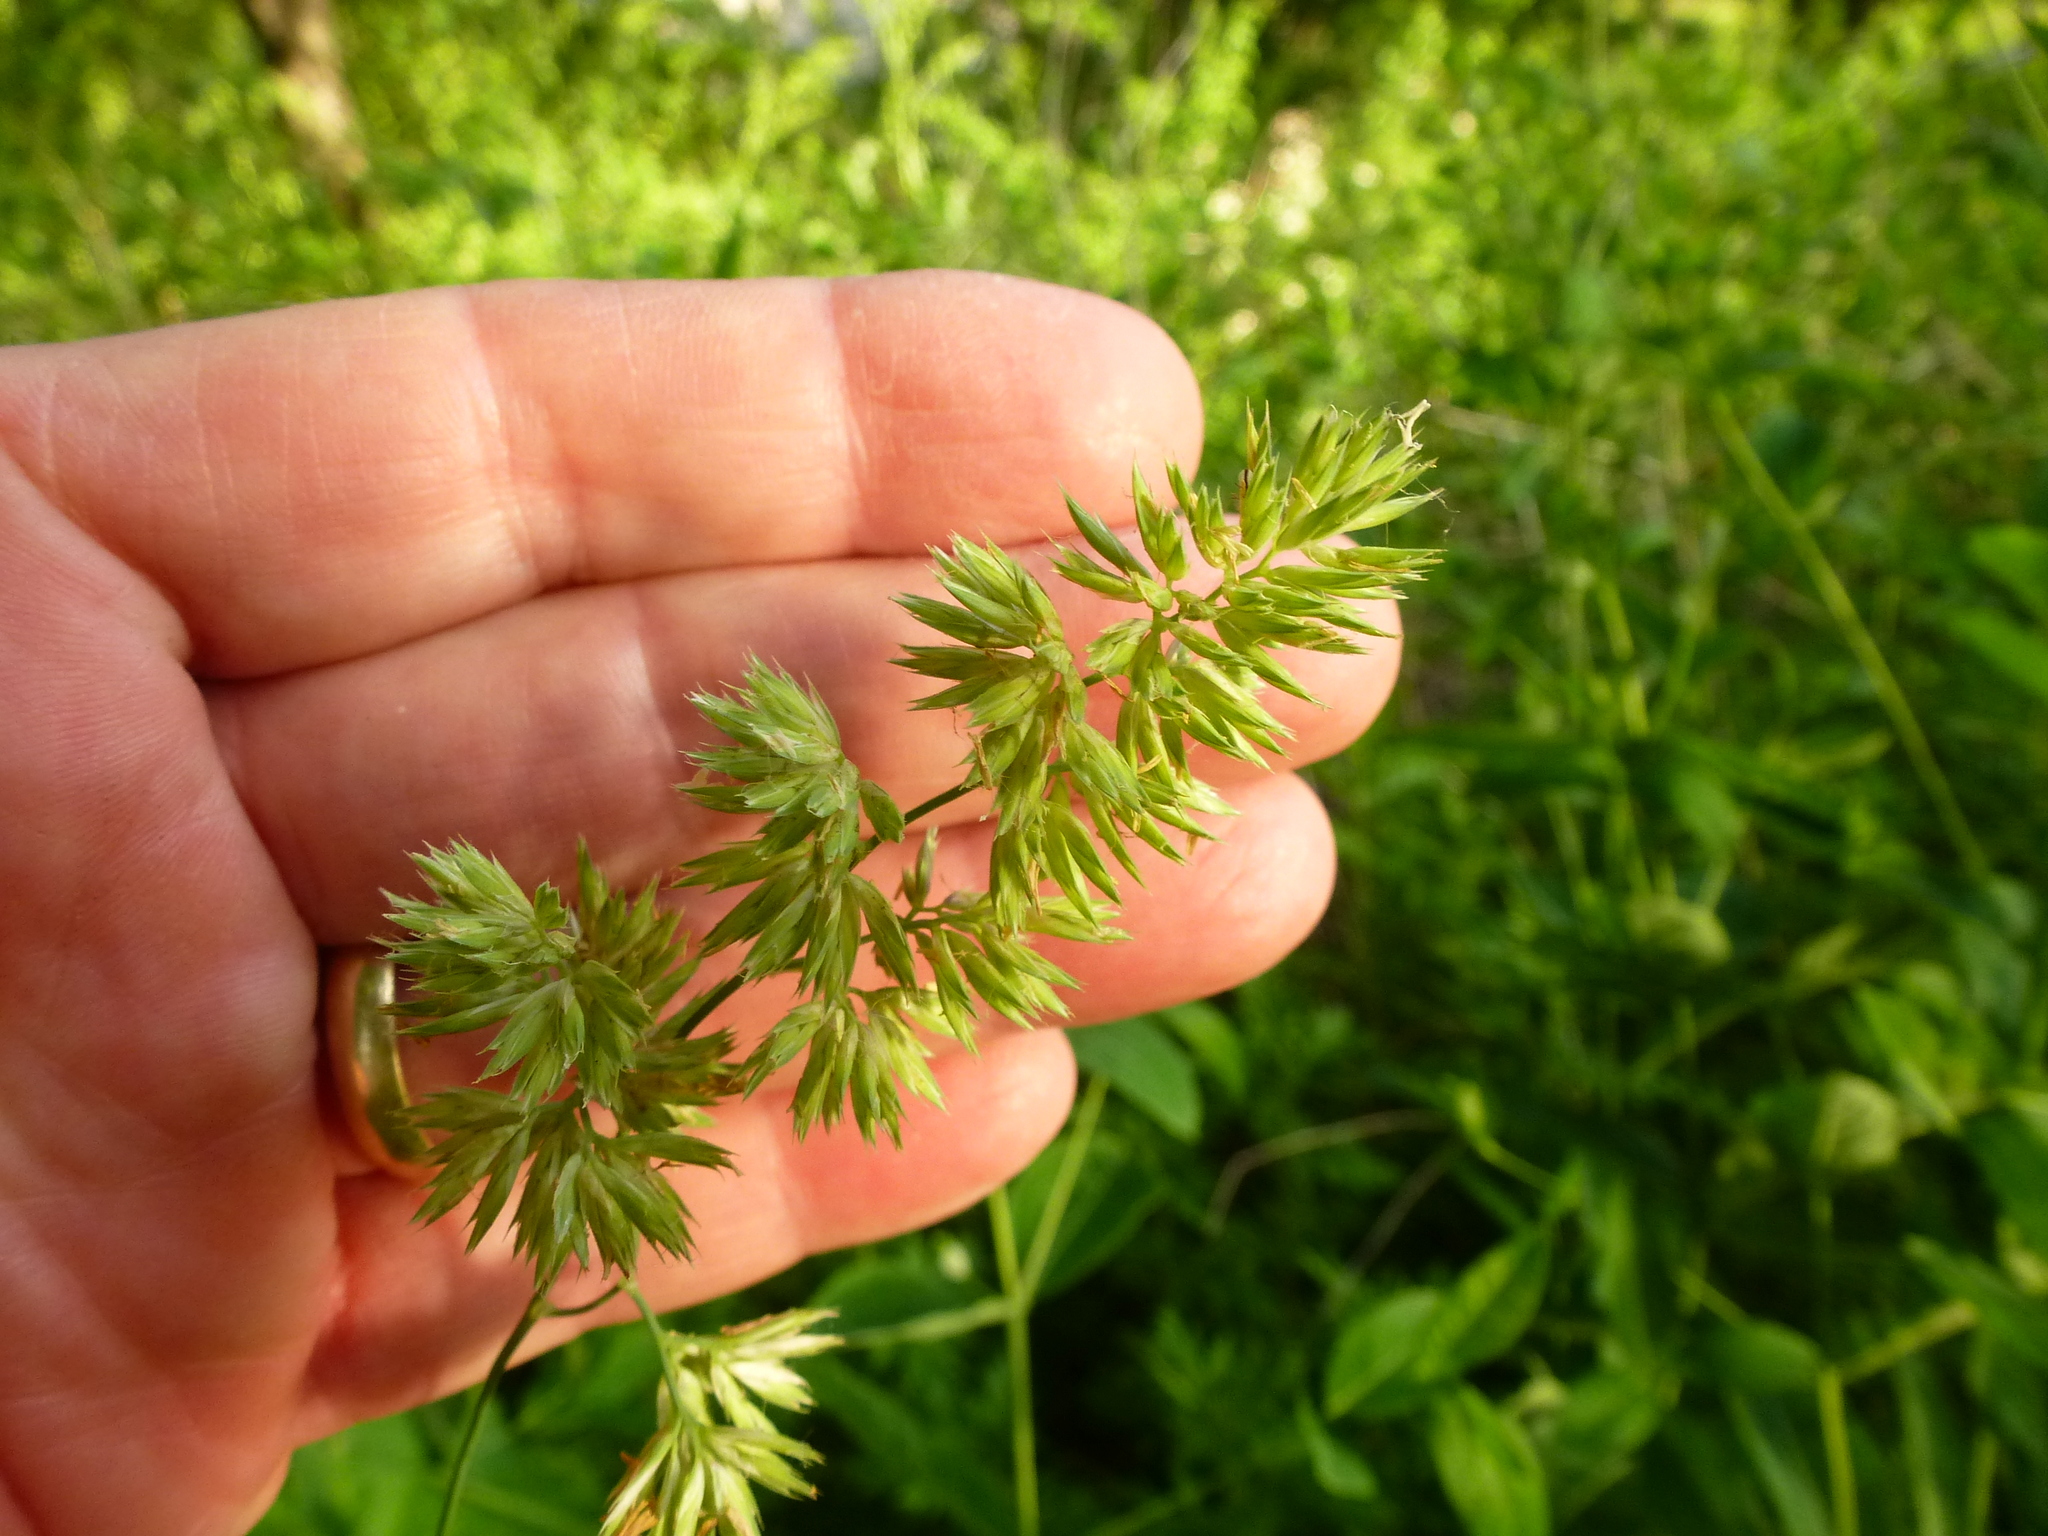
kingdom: Plantae
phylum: Tracheophyta
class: Liliopsida
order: Poales
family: Poaceae
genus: Dactylis
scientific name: Dactylis glomerata
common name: Orchardgrass
